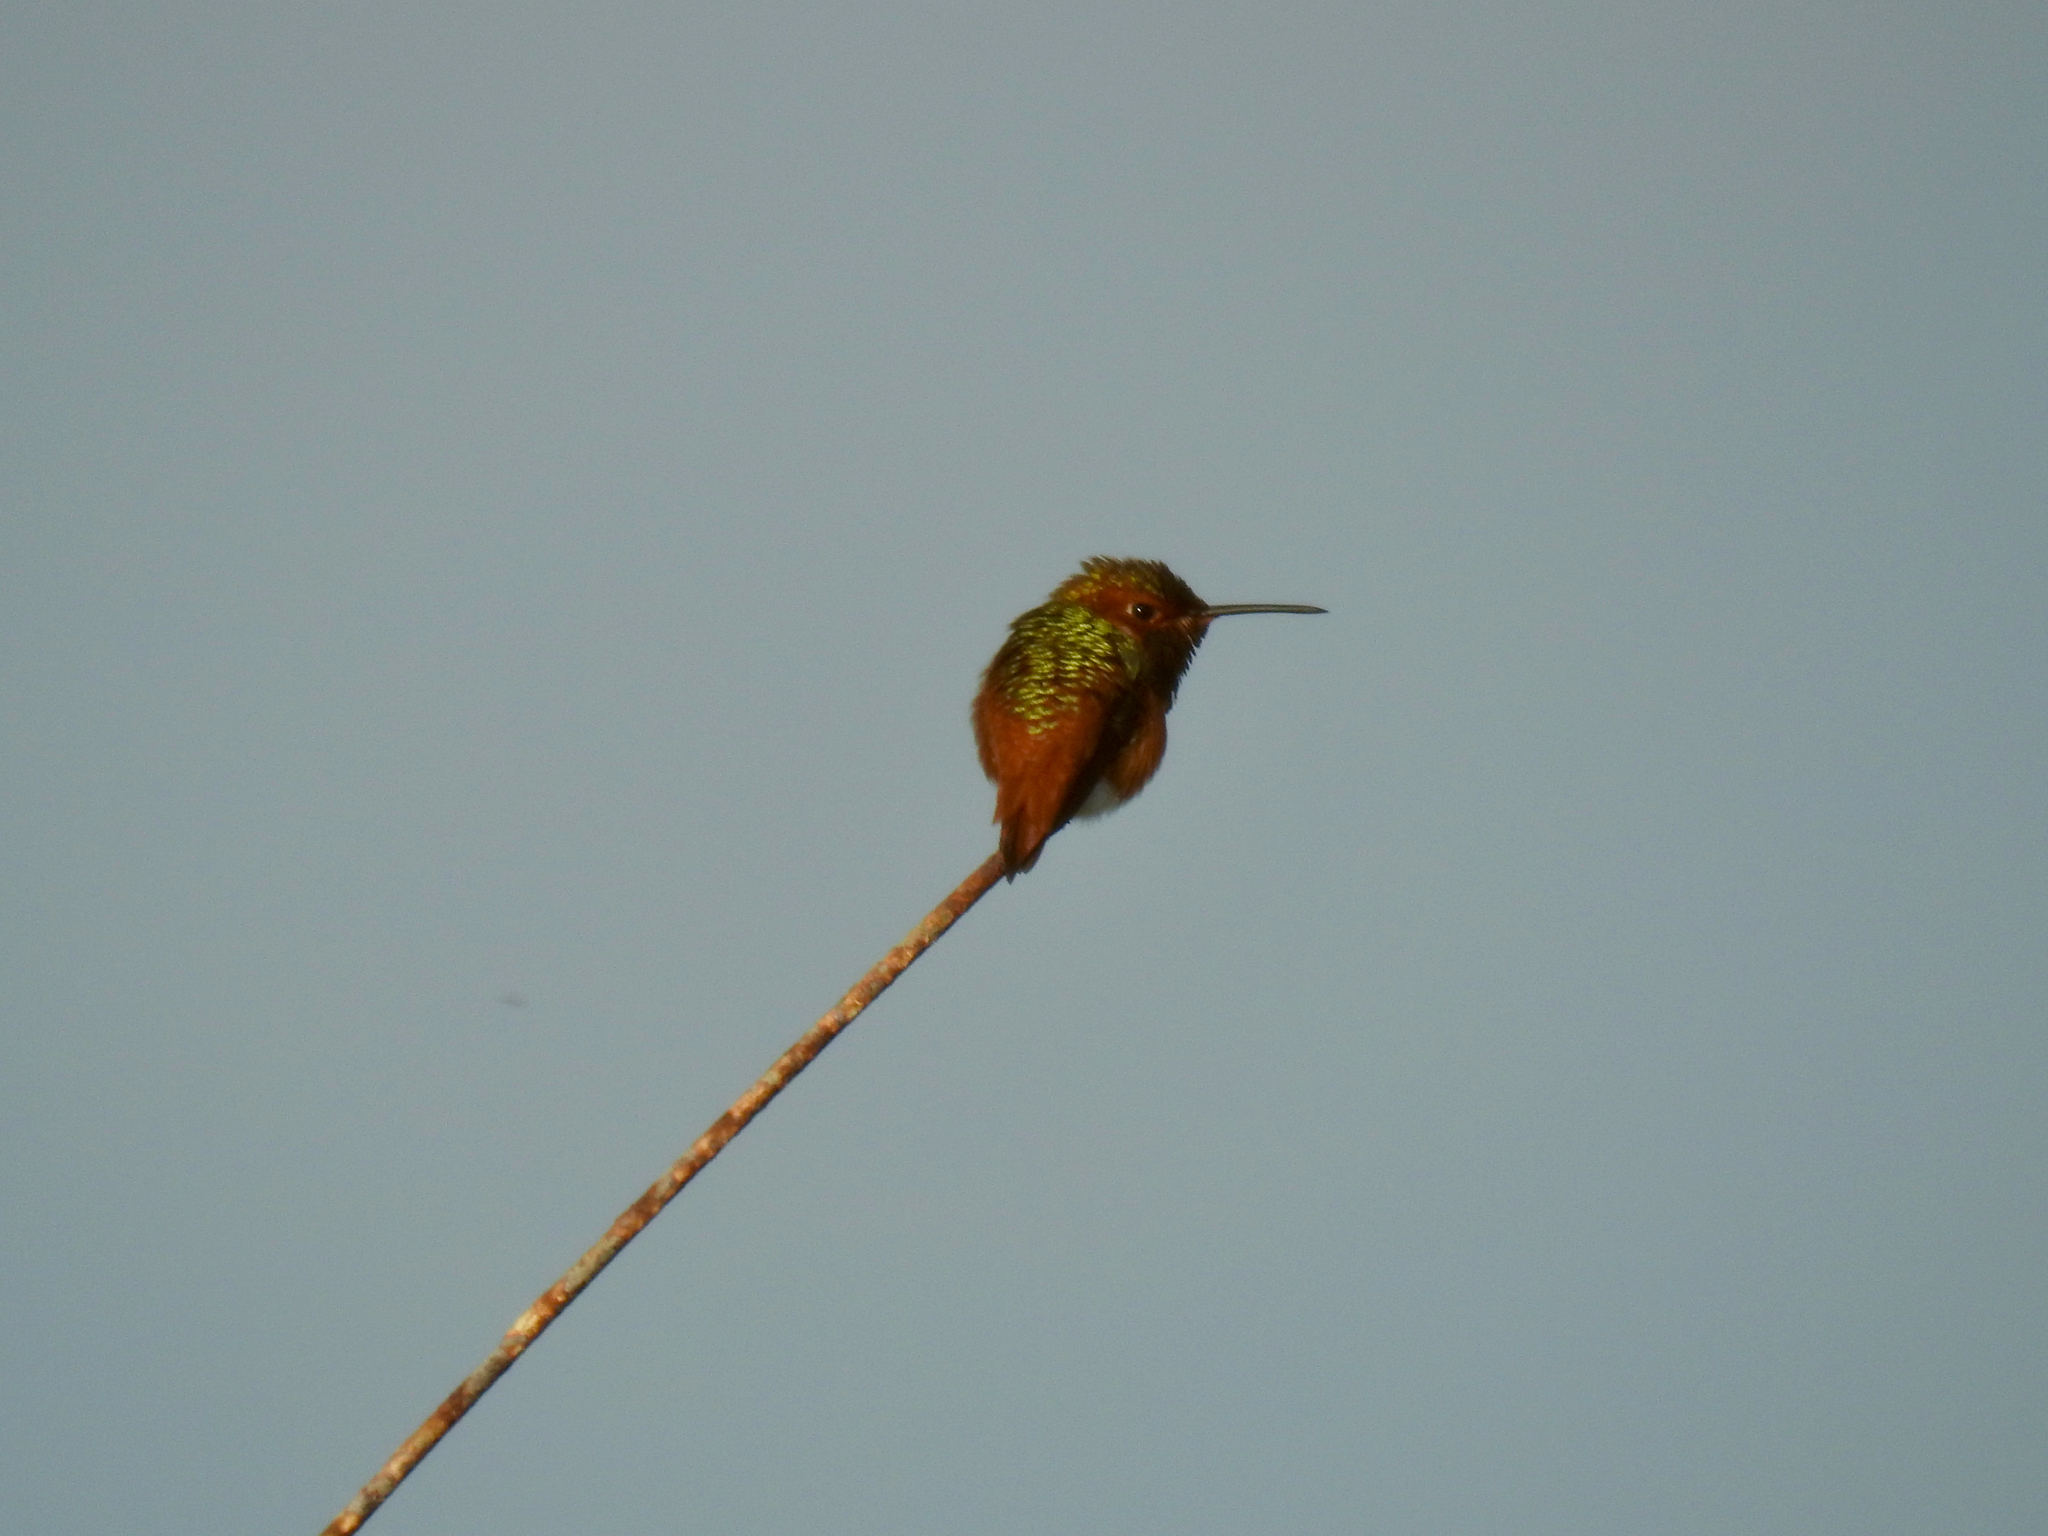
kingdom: Animalia
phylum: Chordata
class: Aves
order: Apodiformes
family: Trochilidae
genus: Selasphorus
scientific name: Selasphorus sasin
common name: Allen's hummingbird
